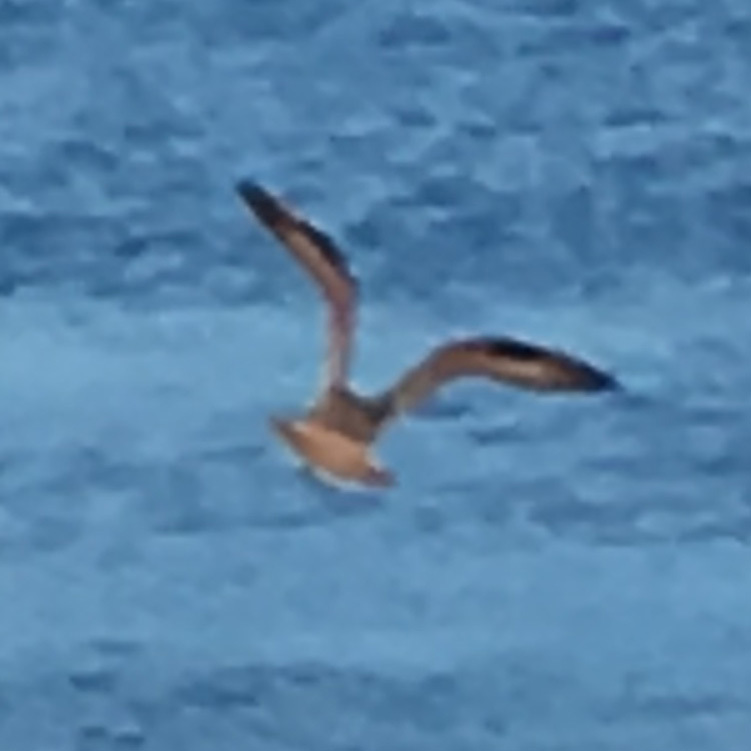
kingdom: Animalia
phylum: Chordata
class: Aves
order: Charadriiformes
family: Scolopacidae
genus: Limosa
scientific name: Limosa fedoa
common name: Marbled godwit
